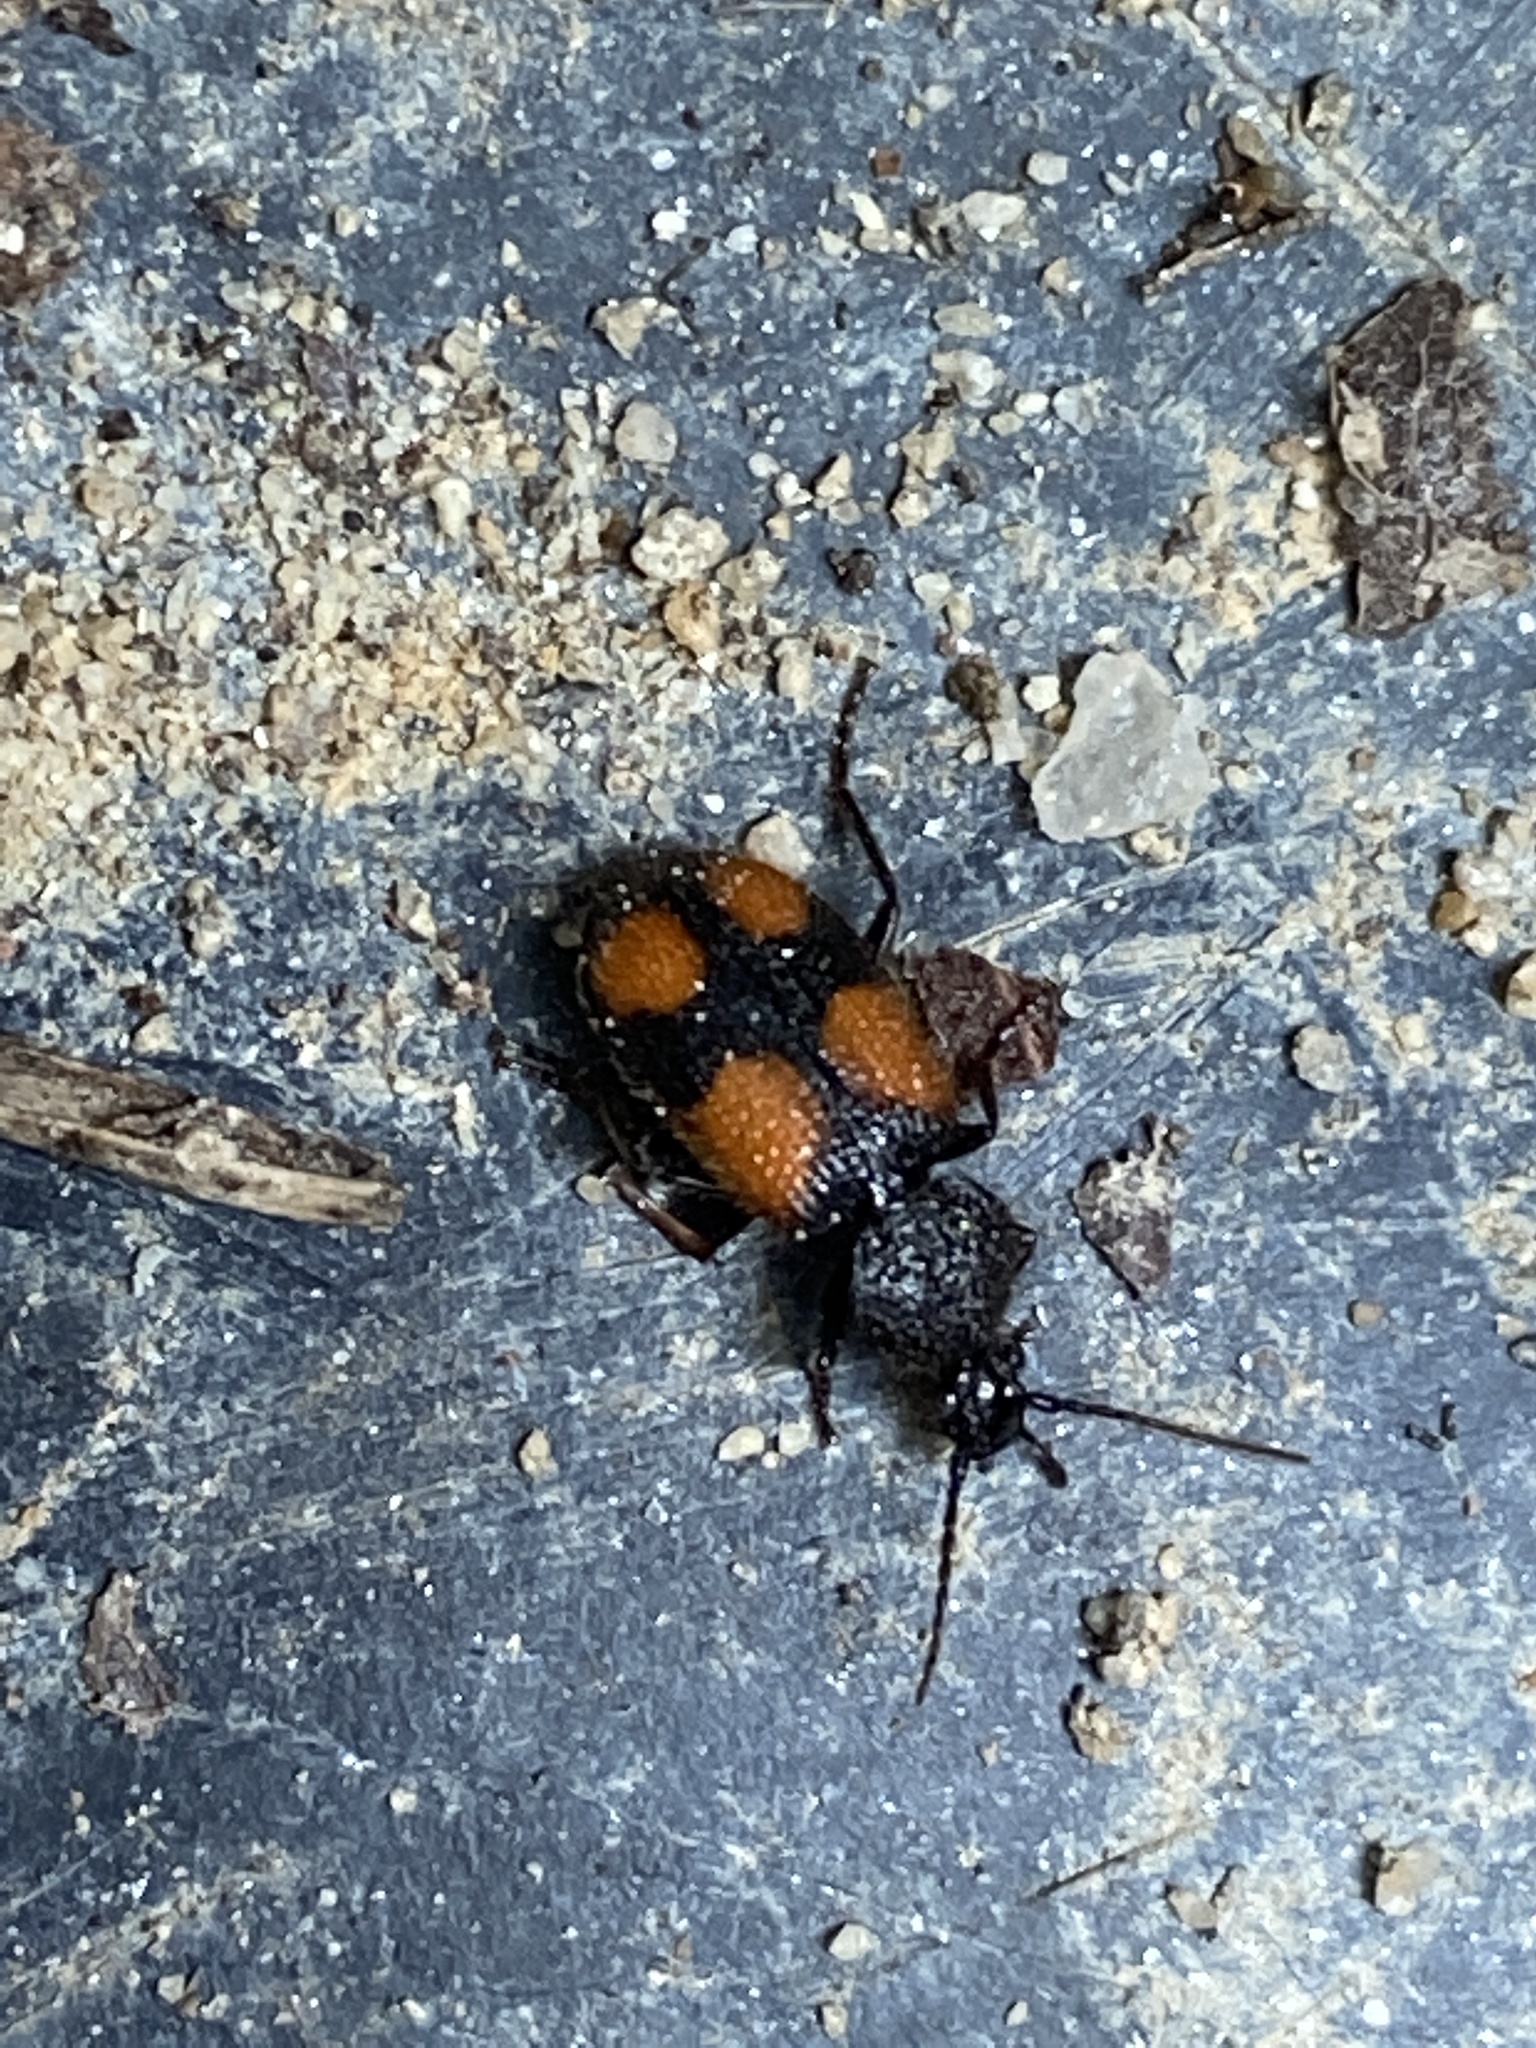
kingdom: Animalia
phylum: Arthropoda
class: Insecta
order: Coleoptera
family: Carabidae
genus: Panagaeus
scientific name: Panagaeus bipustulatus
